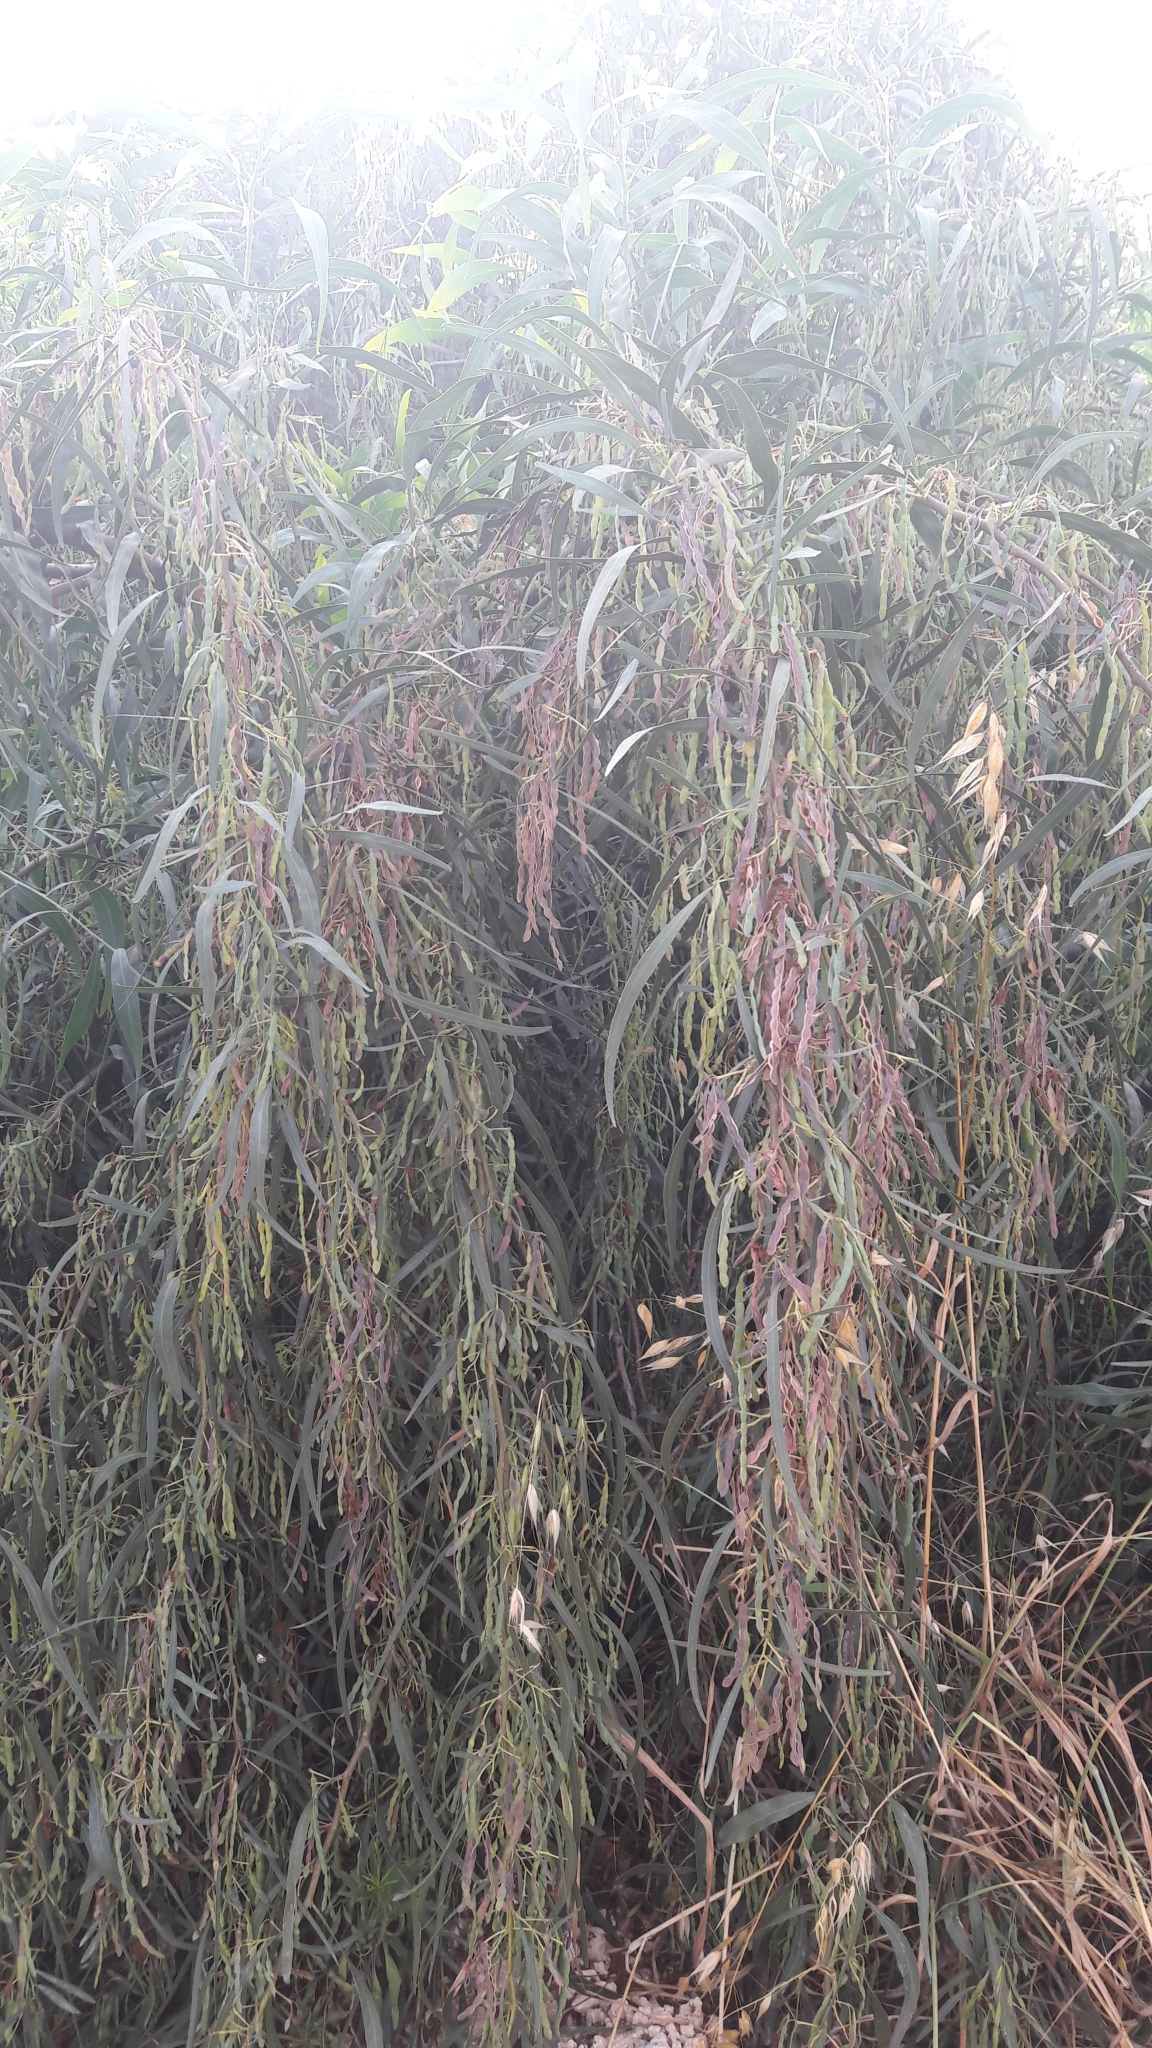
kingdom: Plantae
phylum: Tracheophyta
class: Magnoliopsida
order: Fabales
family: Fabaceae
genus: Acacia
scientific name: Acacia saligna
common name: Orange wattle
